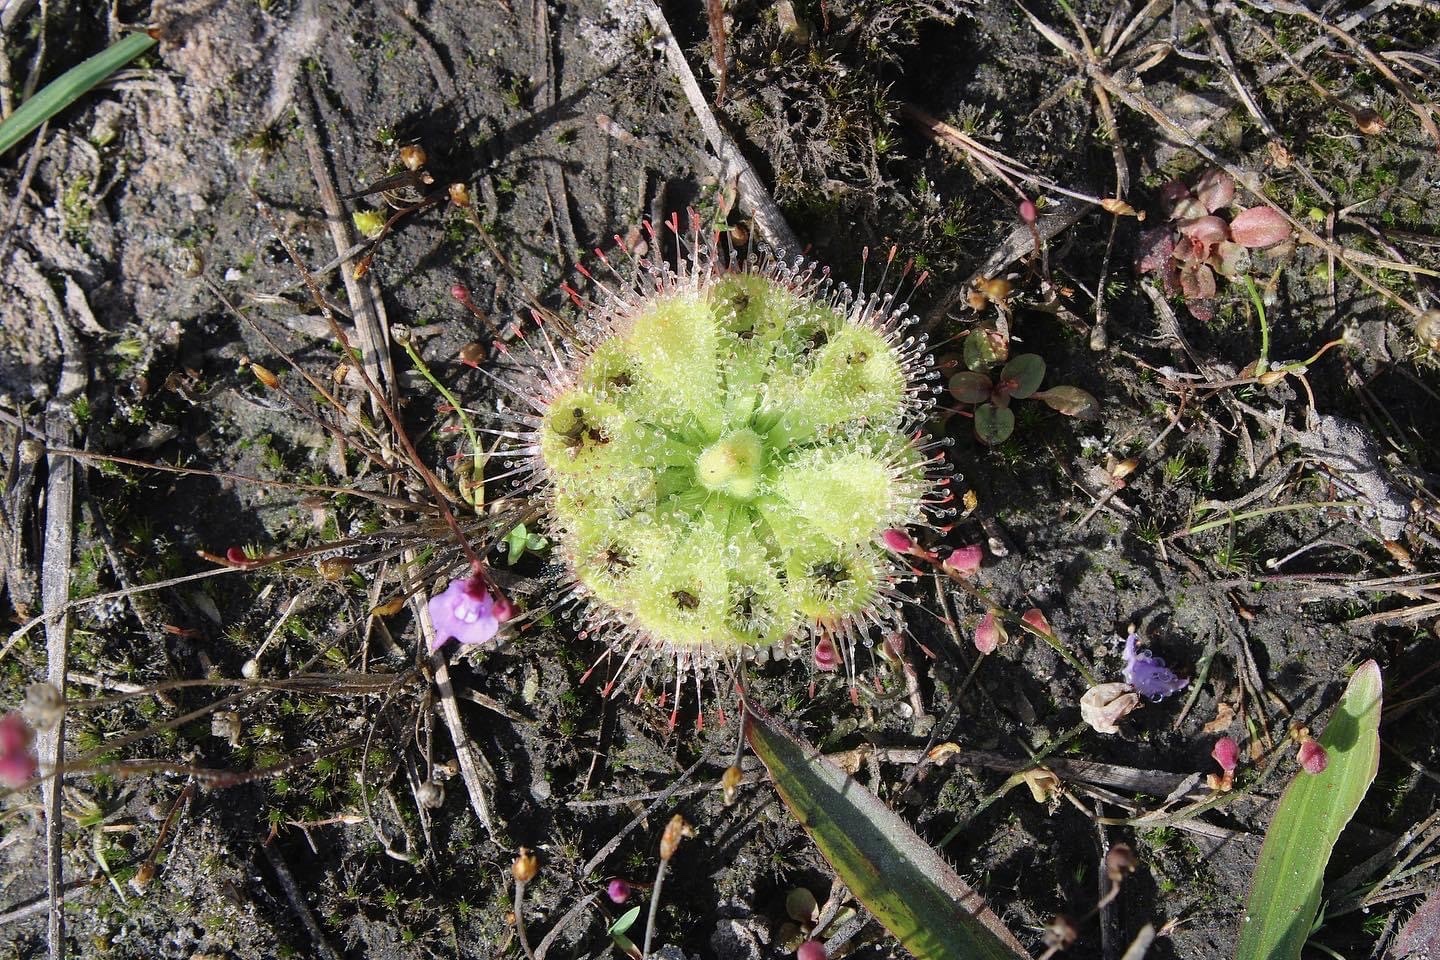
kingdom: Plantae
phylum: Tracheophyta
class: Magnoliopsida
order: Caryophyllales
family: Droseraceae
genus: Drosera
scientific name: Drosera spatulata
